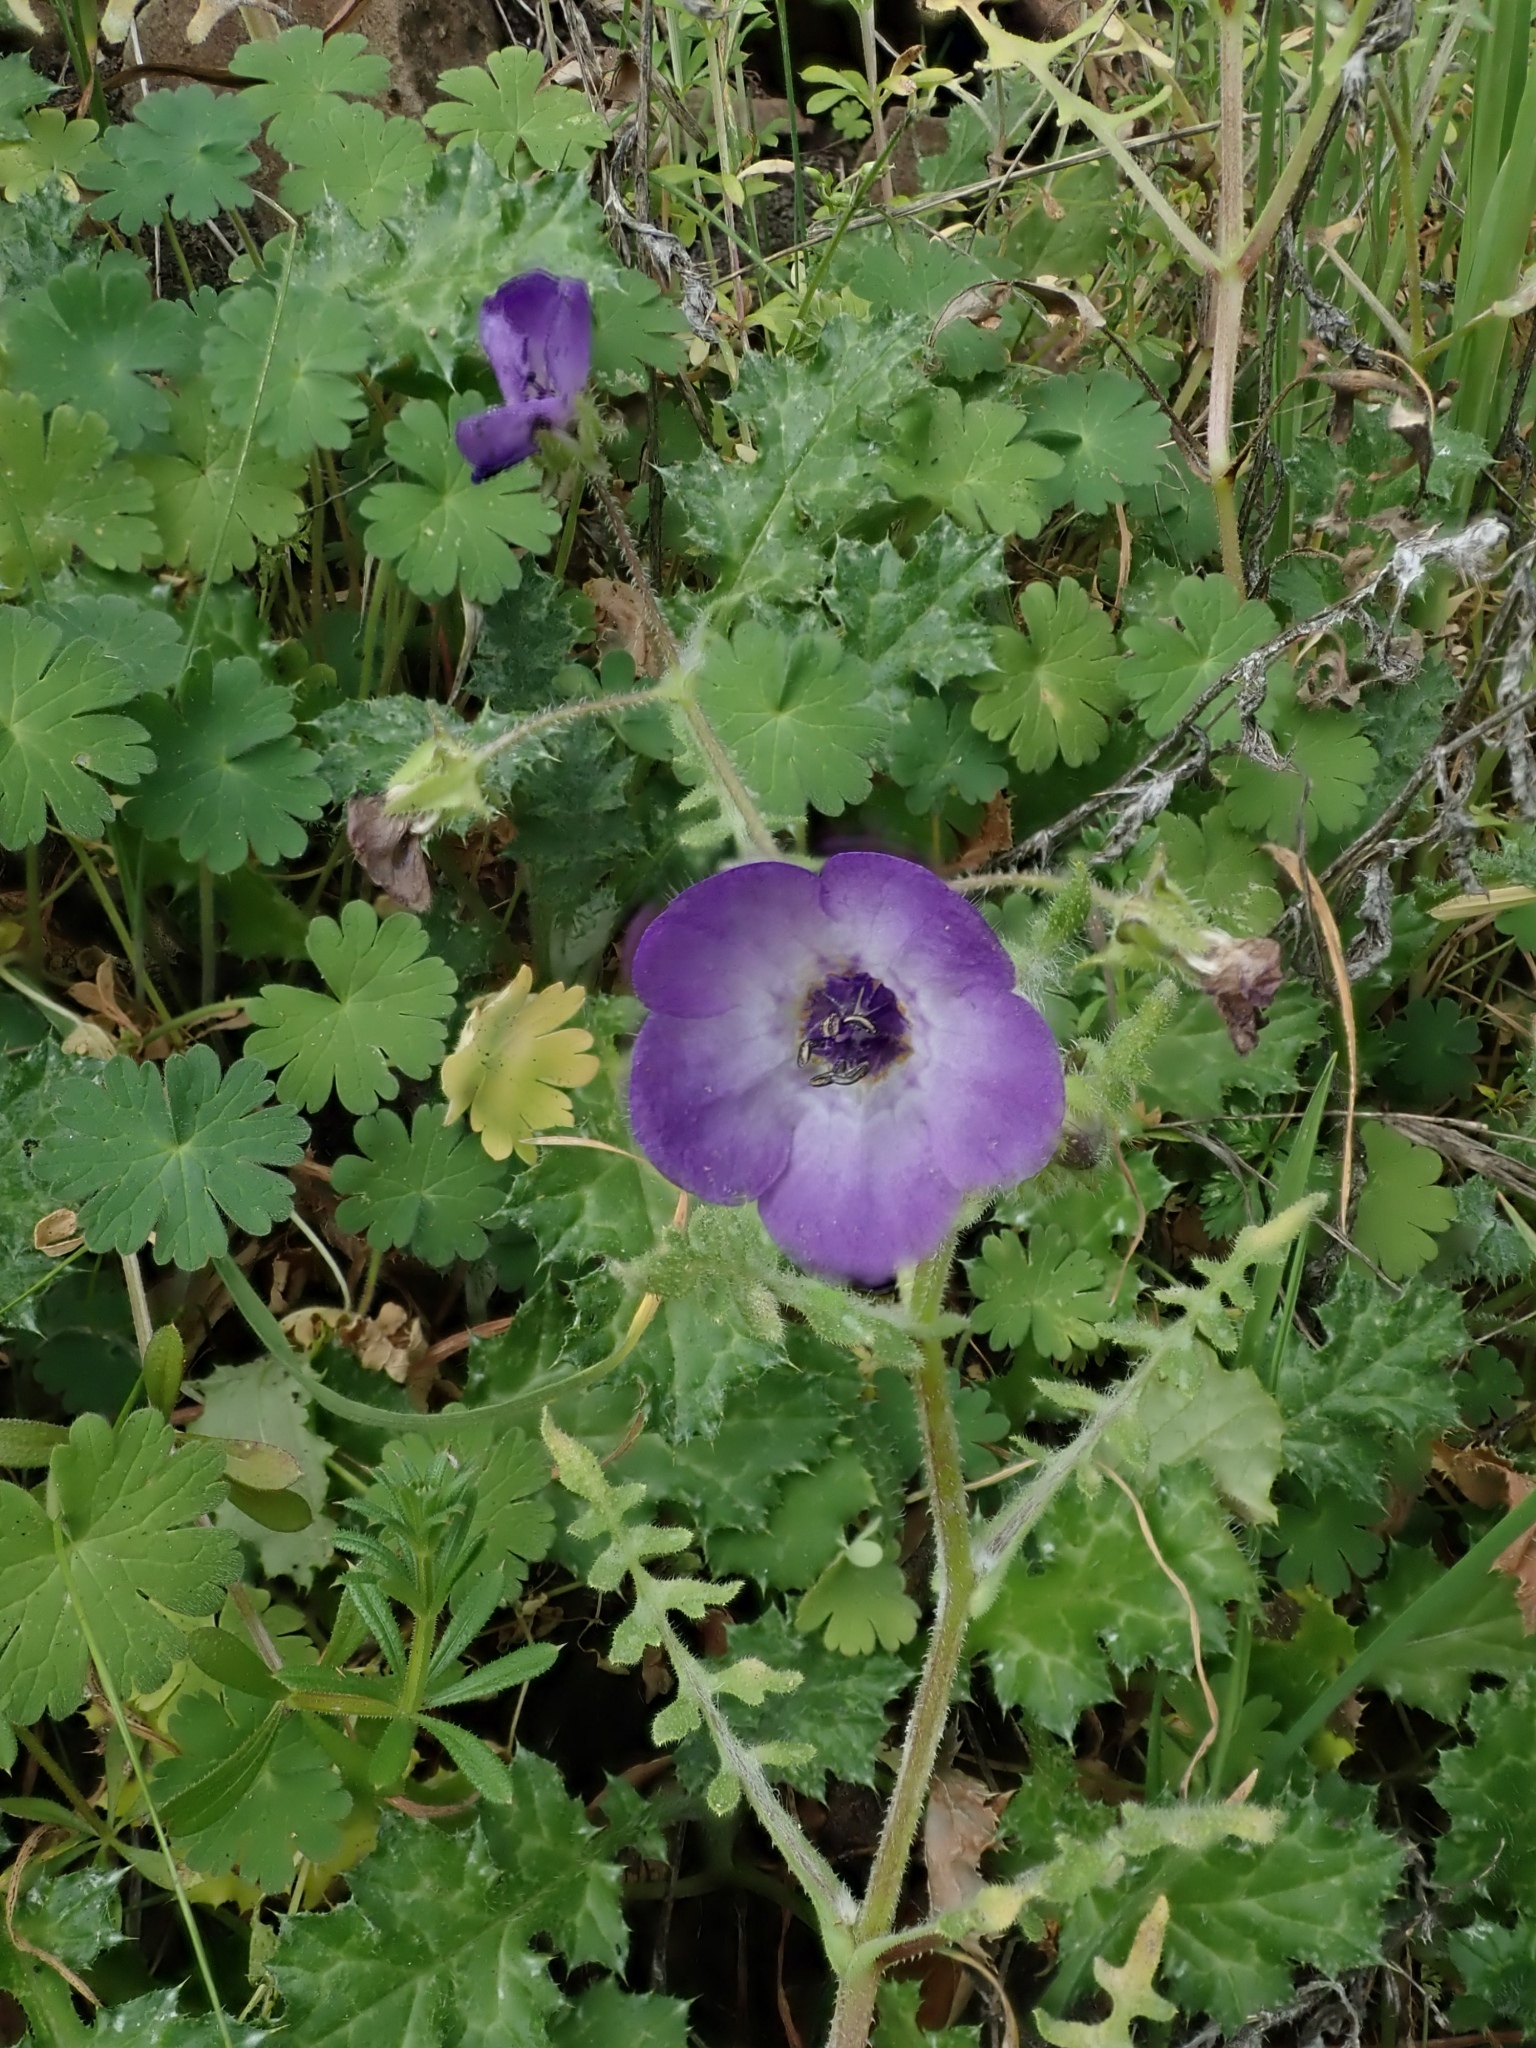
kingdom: Plantae
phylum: Tracheophyta
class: Magnoliopsida
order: Boraginales
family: Hydrophyllaceae
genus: Pholistoma
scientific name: Pholistoma auritum
